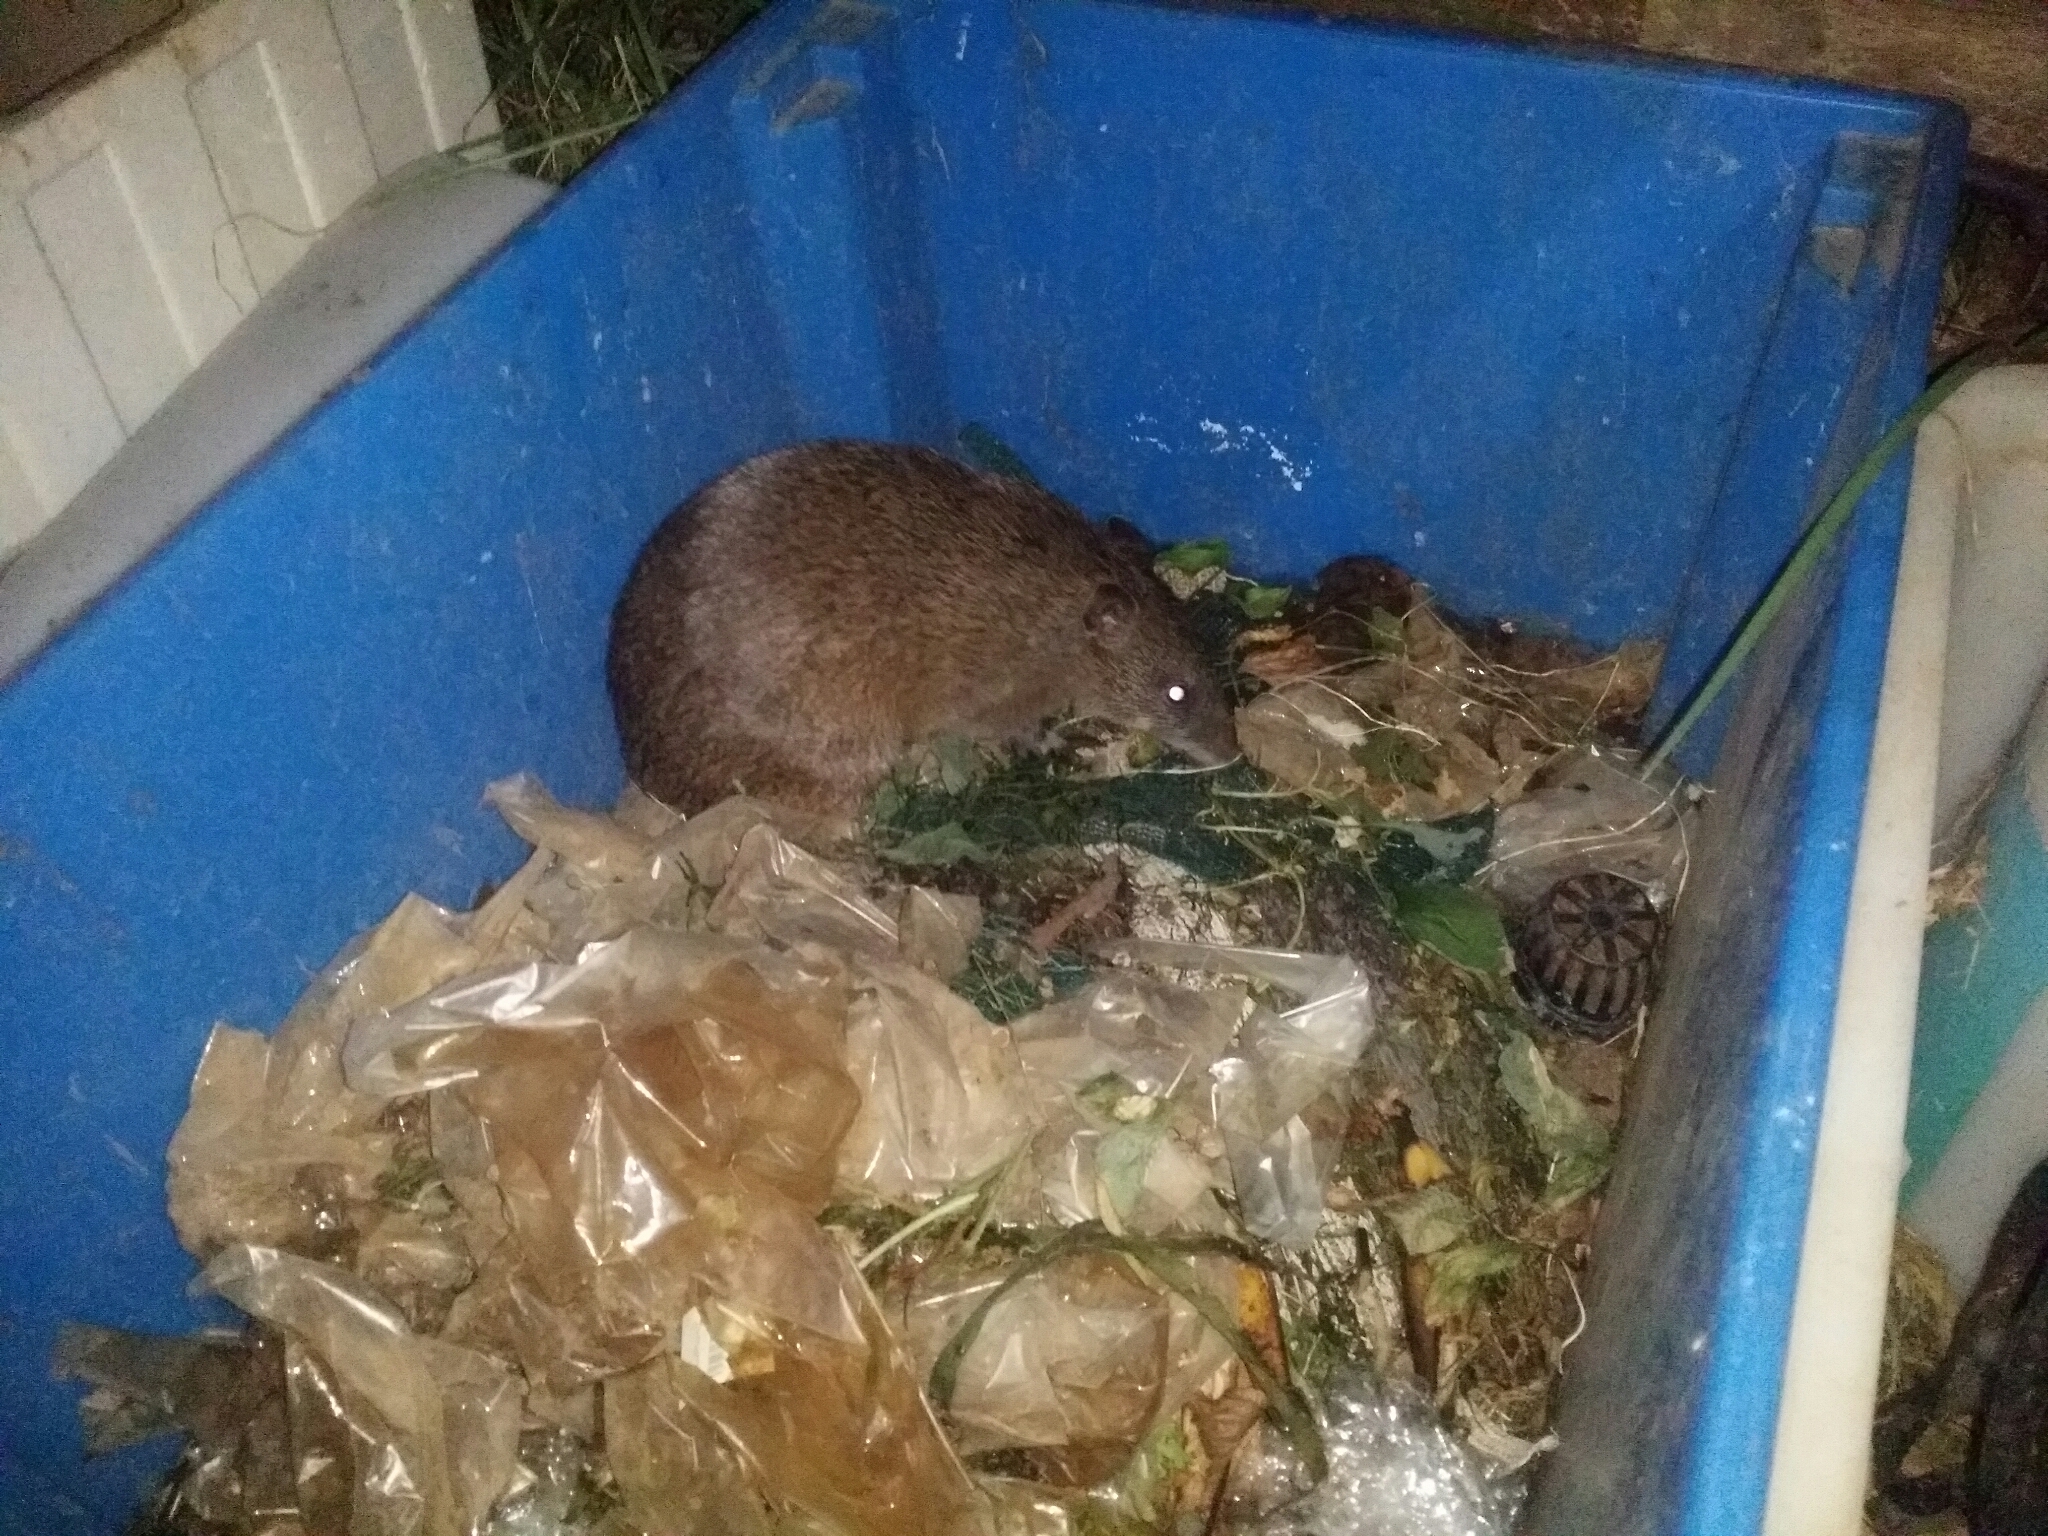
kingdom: Animalia
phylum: Chordata
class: Mammalia
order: Peramelemorphia
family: Peramelidae
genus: Isoodon
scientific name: Isoodon fusciventer
